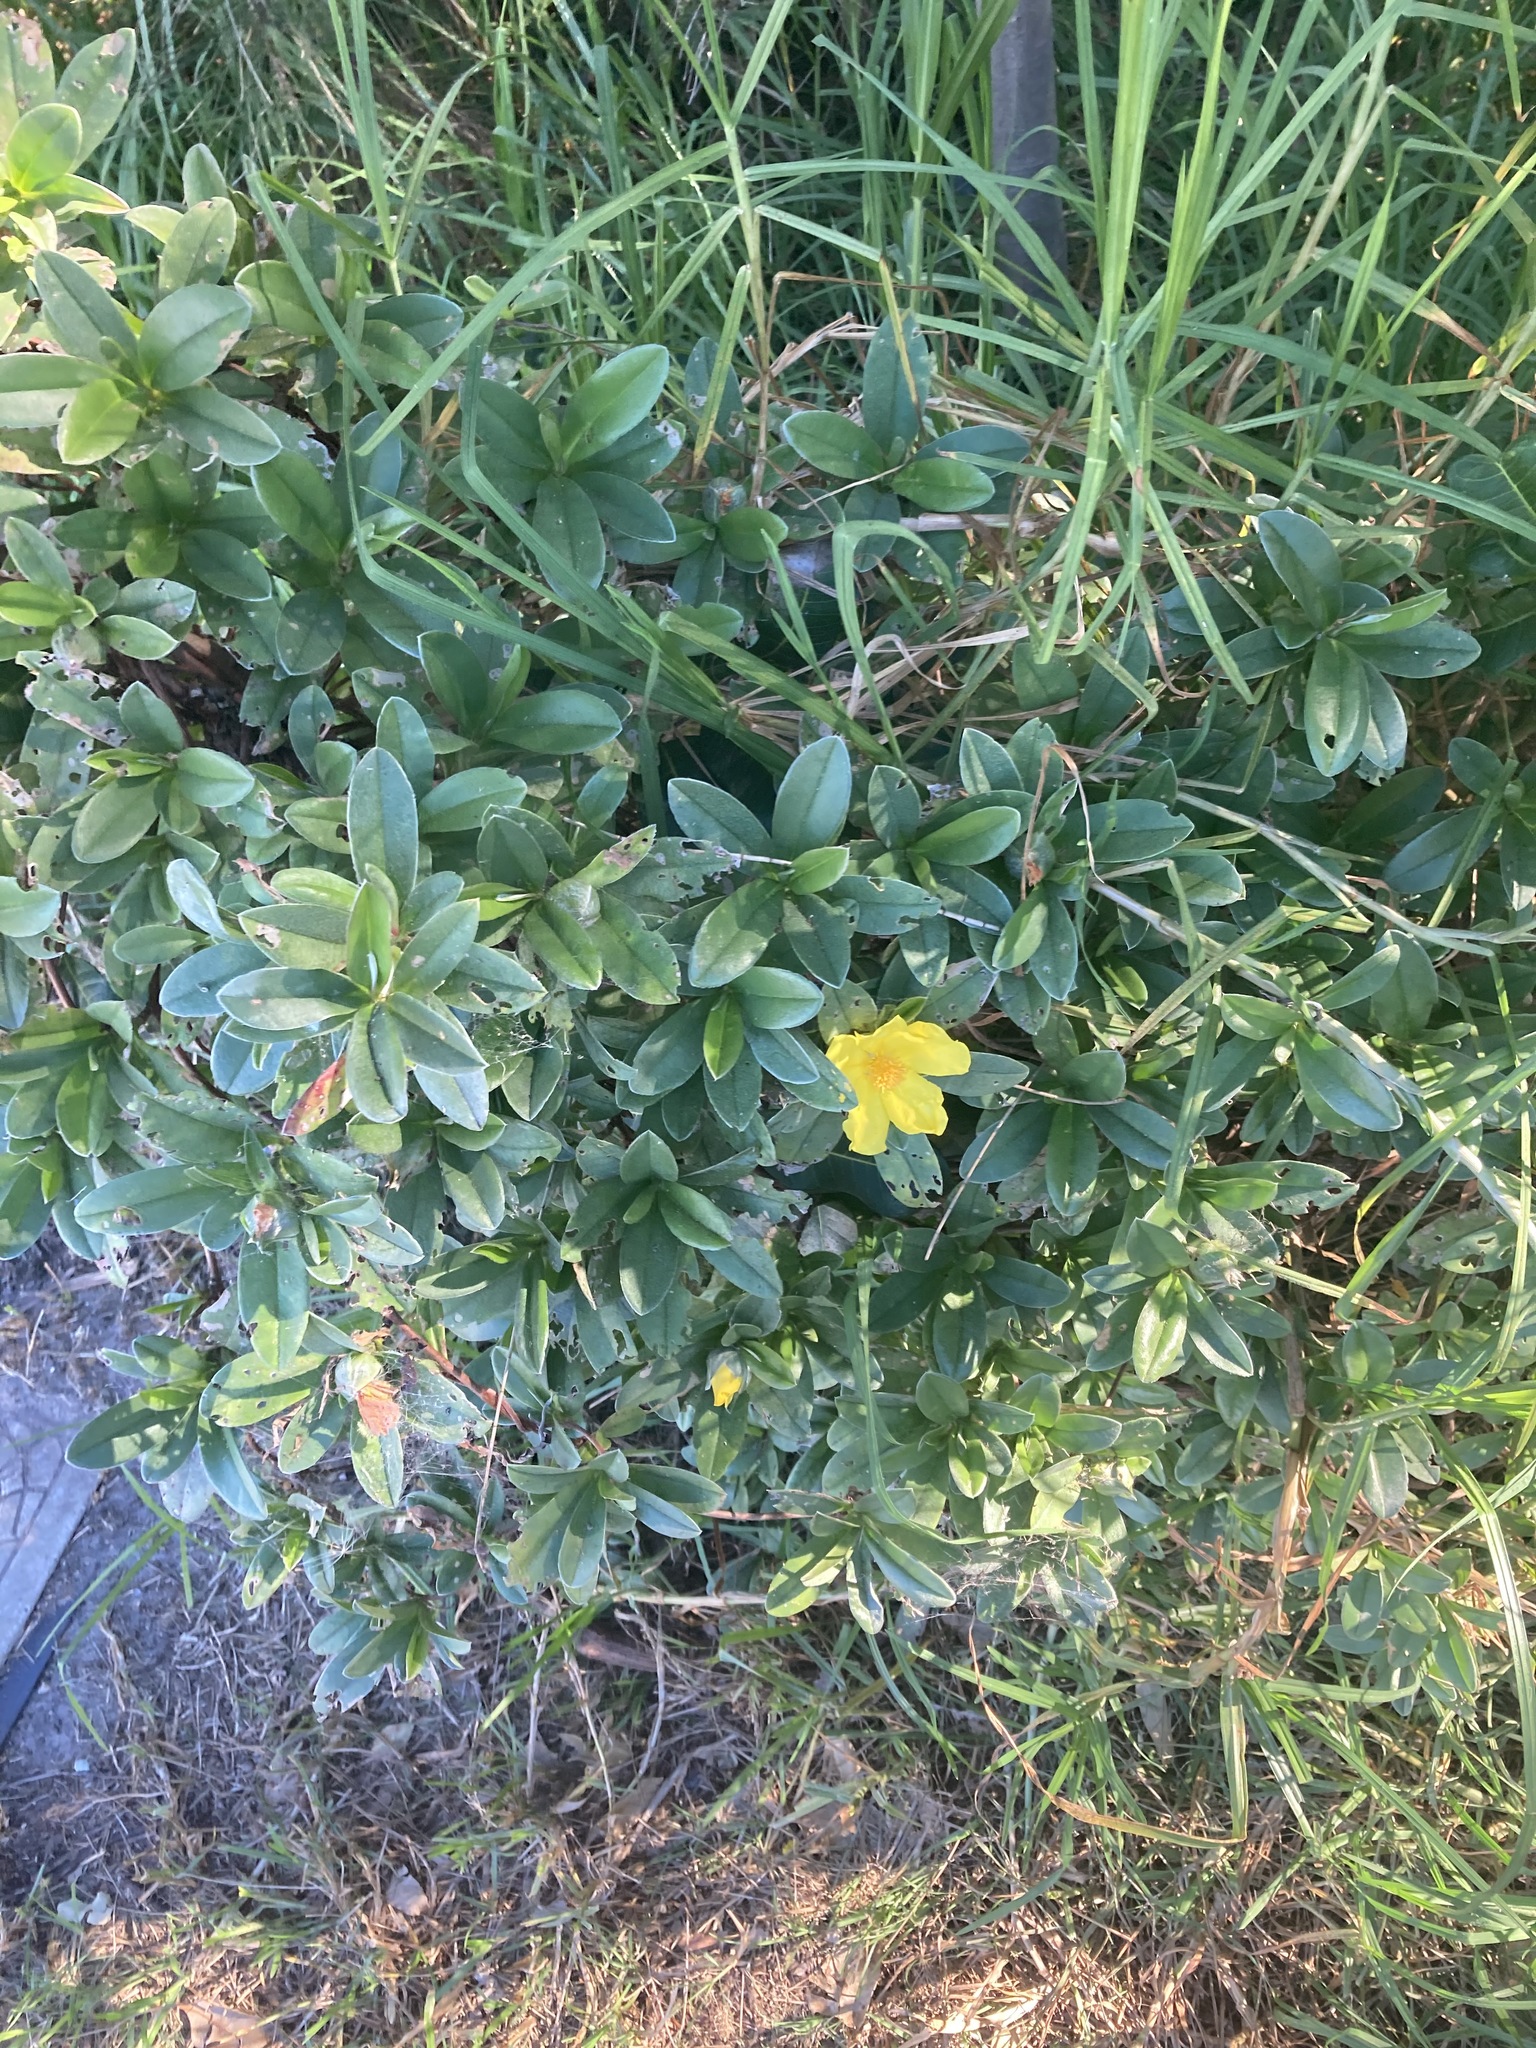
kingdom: Plantae
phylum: Tracheophyta
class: Magnoliopsida
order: Dilleniales
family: Dilleniaceae
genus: Hibbertia
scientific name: Hibbertia scandens
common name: Climbing guinea-flower
